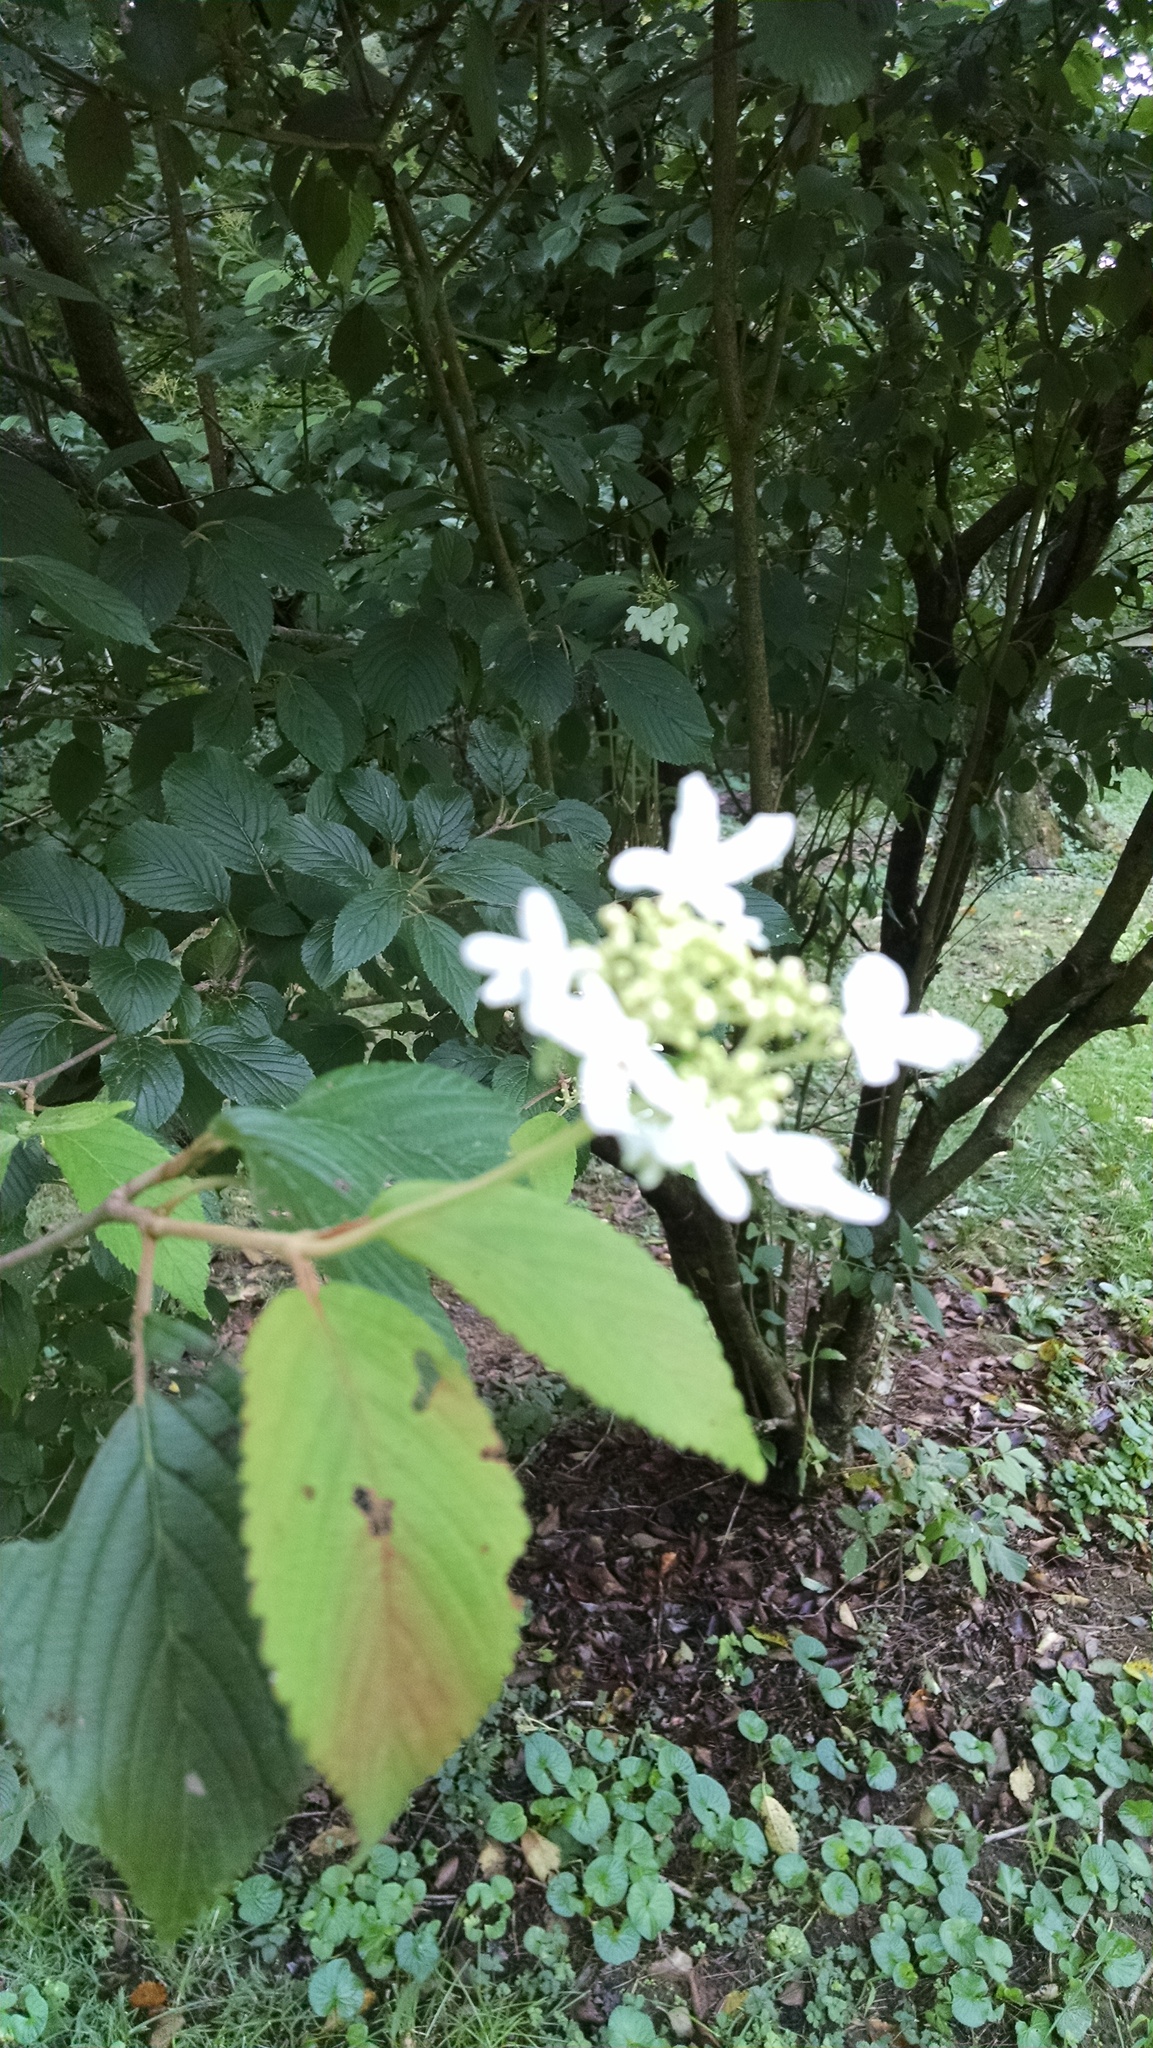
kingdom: Plantae
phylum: Tracheophyta
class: Magnoliopsida
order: Dipsacales
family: Viburnaceae
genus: Viburnum
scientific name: Viburnum plicatum
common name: Japanese snowball
